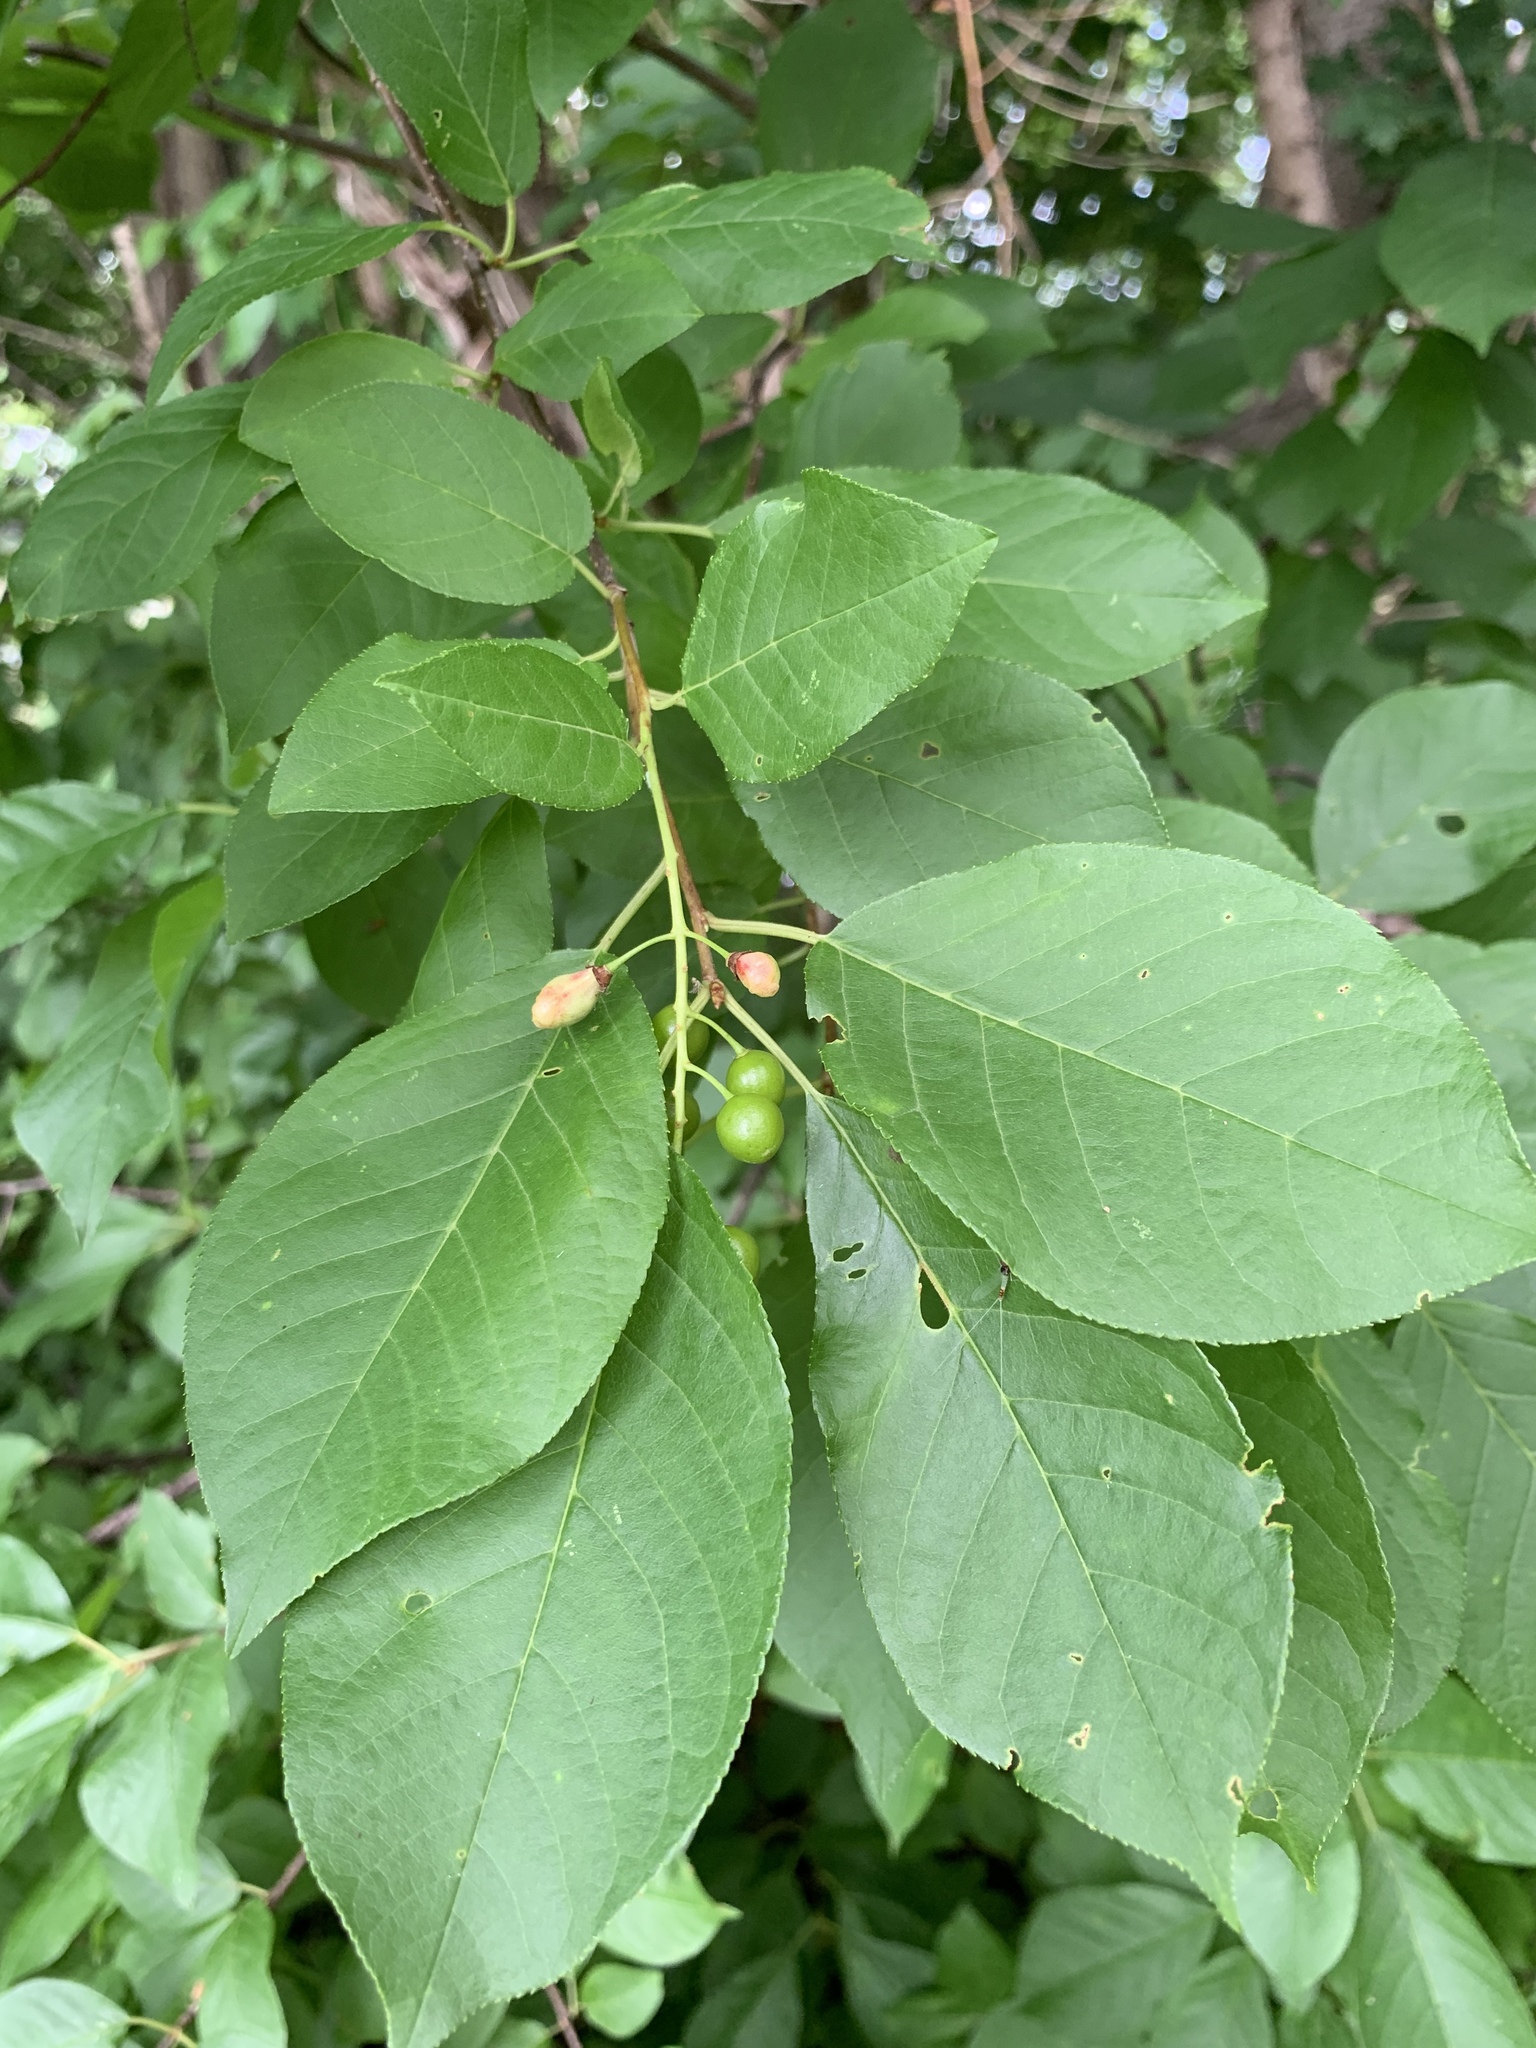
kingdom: Plantae
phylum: Tracheophyta
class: Magnoliopsida
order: Rosales
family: Rosaceae
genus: Prunus
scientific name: Prunus virginiana
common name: Chokecherry
